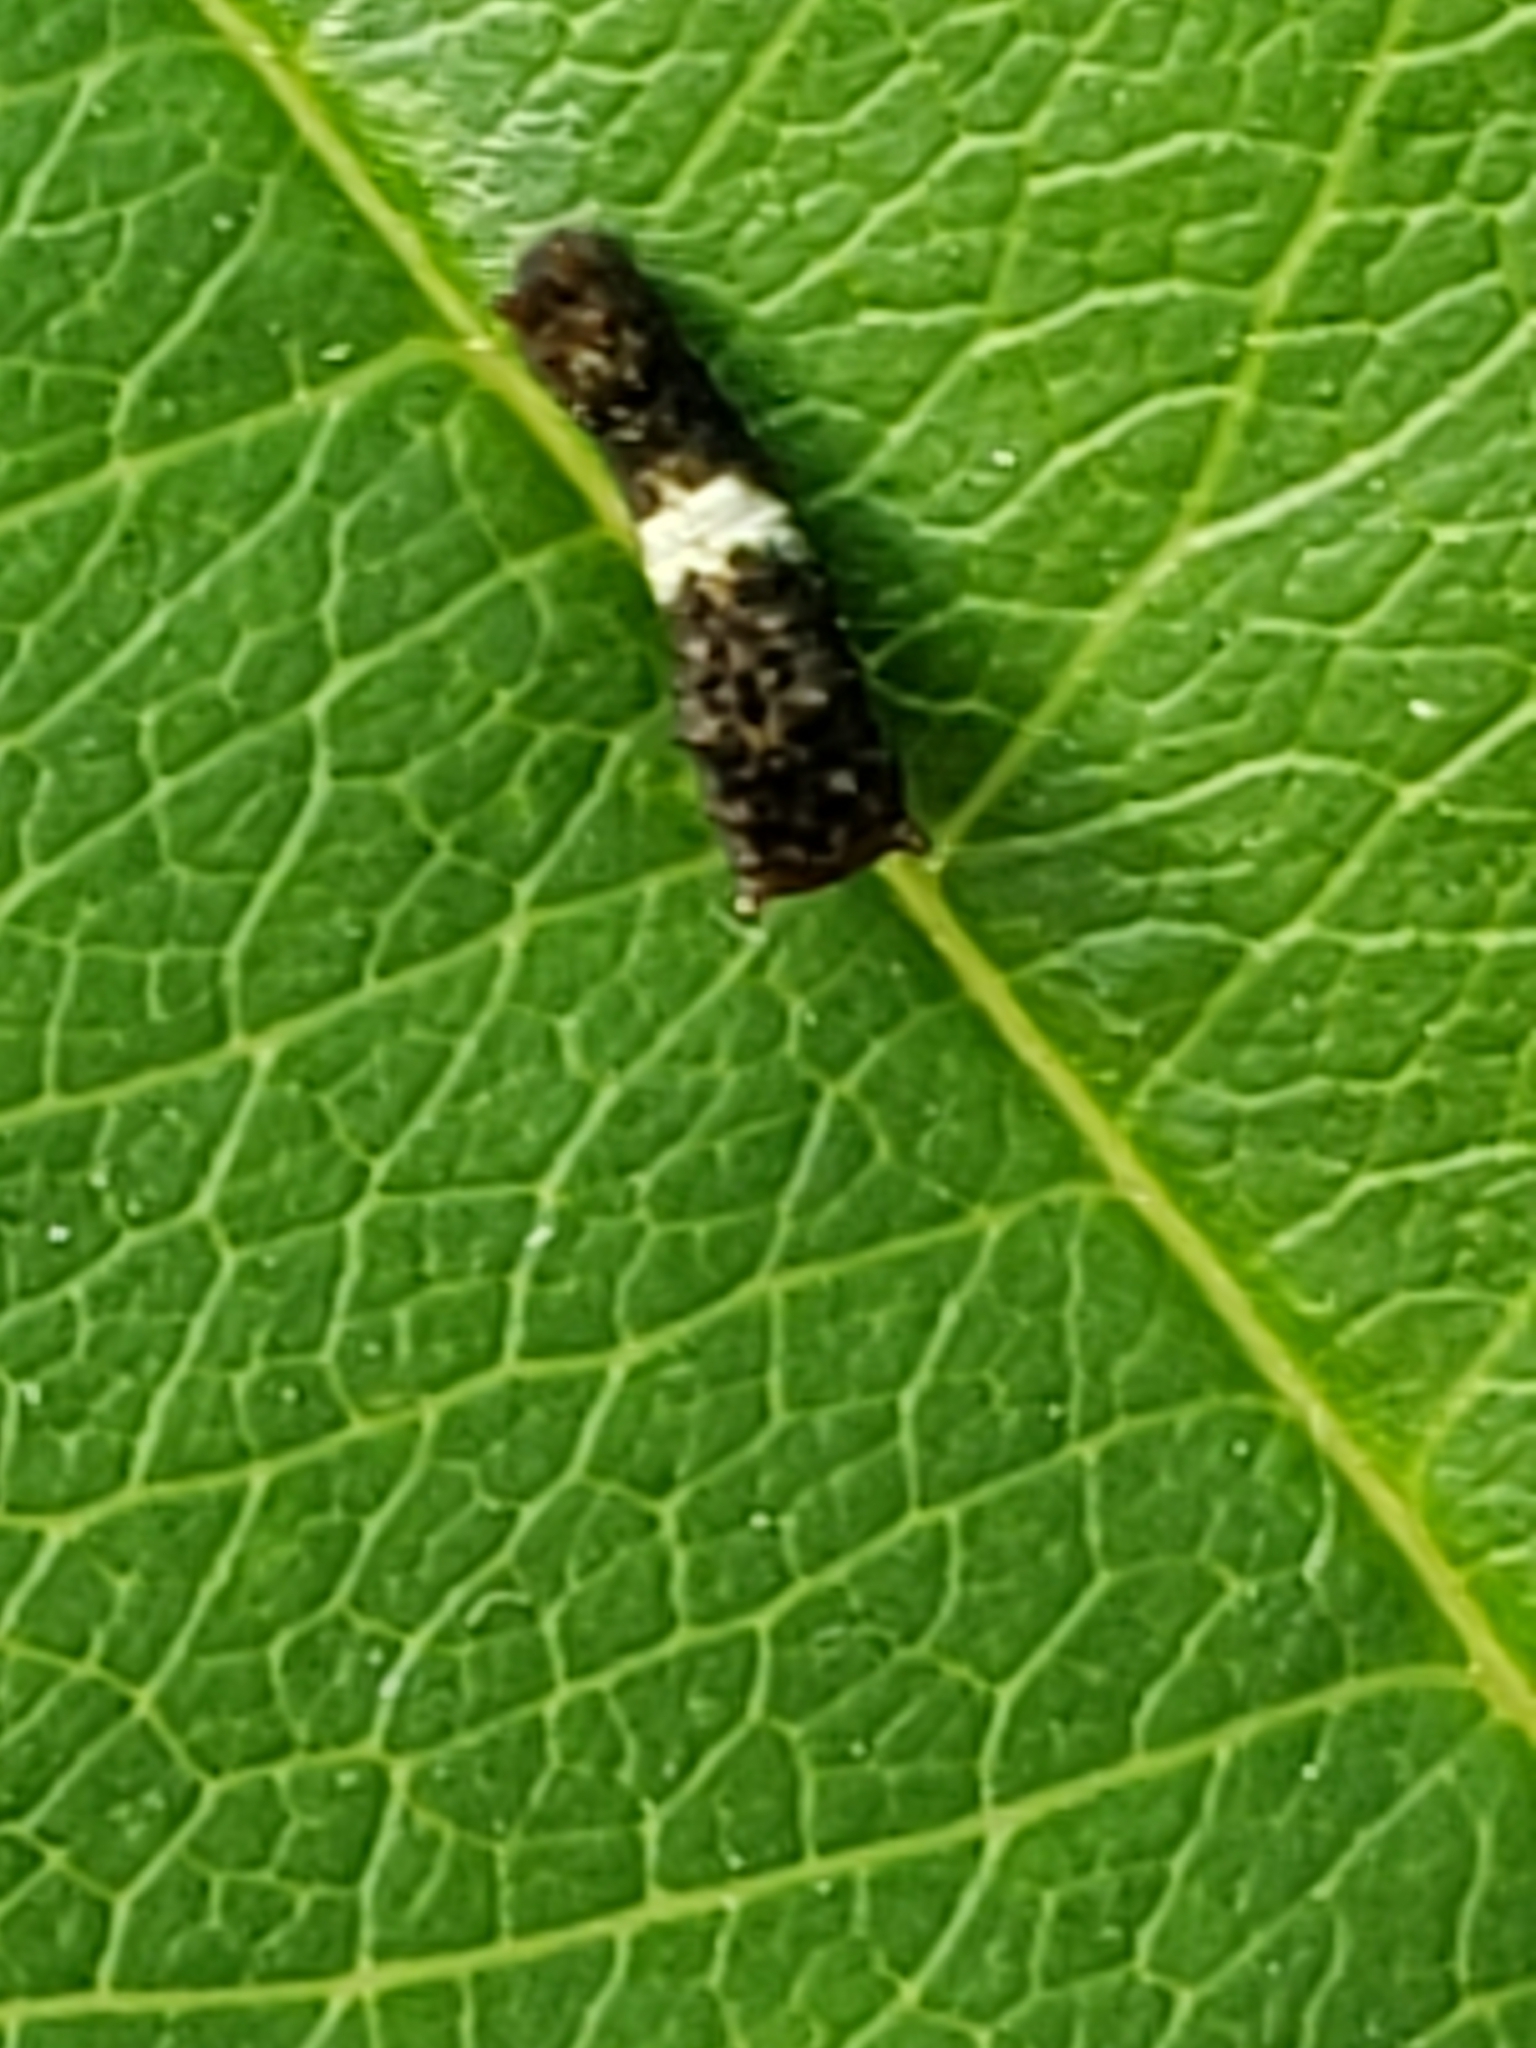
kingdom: Animalia
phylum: Arthropoda
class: Insecta
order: Lepidoptera
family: Papilionidae
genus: Papilio
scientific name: Papilio glaucus
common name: Tiger swallowtail
